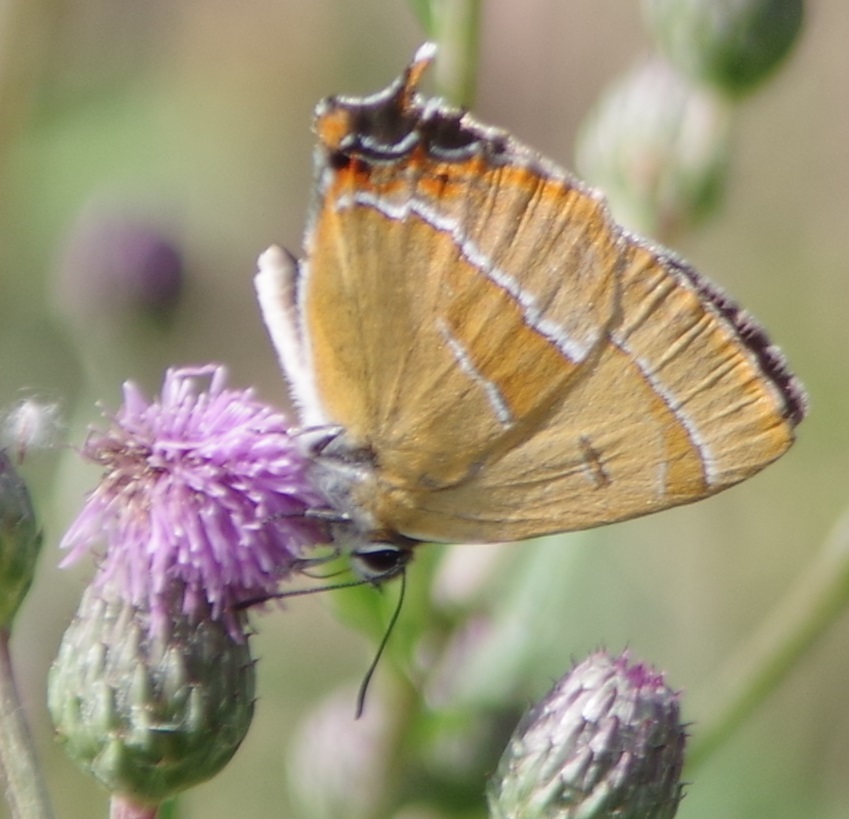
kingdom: Animalia
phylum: Arthropoda
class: Insecta
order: Lepidoptera
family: Lycaenidae
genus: Thecla
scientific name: Thecla betulae
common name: Brown hairstreak
